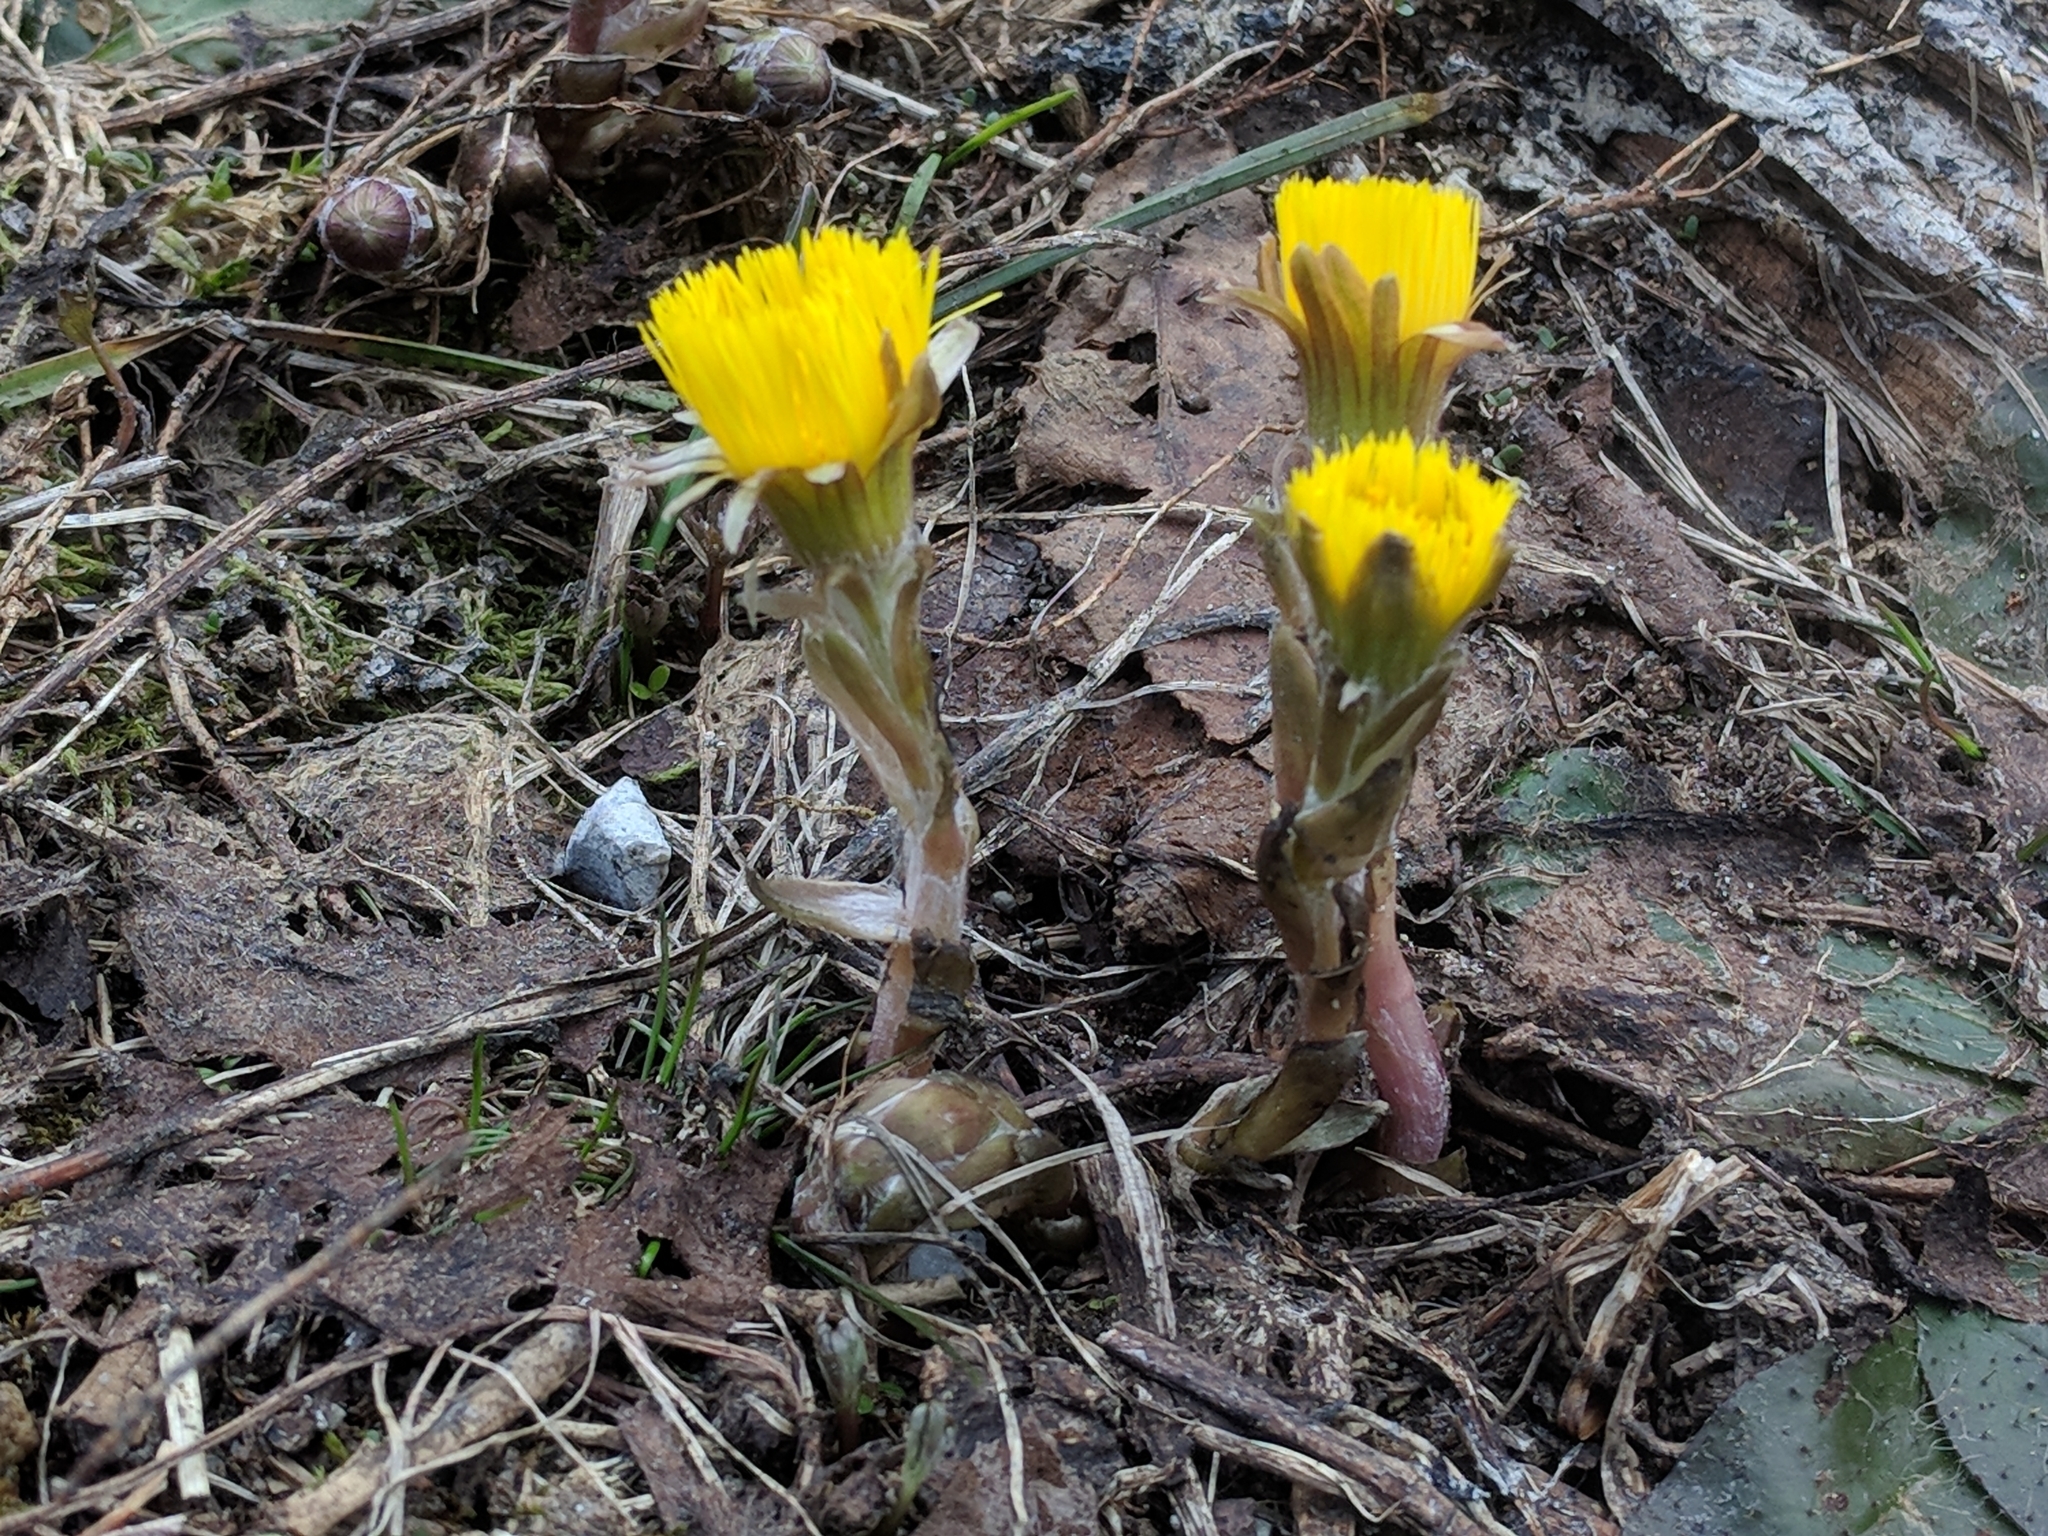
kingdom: Plantae
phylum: Tracheophyta
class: Magnoliopsida
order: Asterales
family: Asteraceae
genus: Tussilago
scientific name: Tussilago farfara
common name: Coltsfoot
